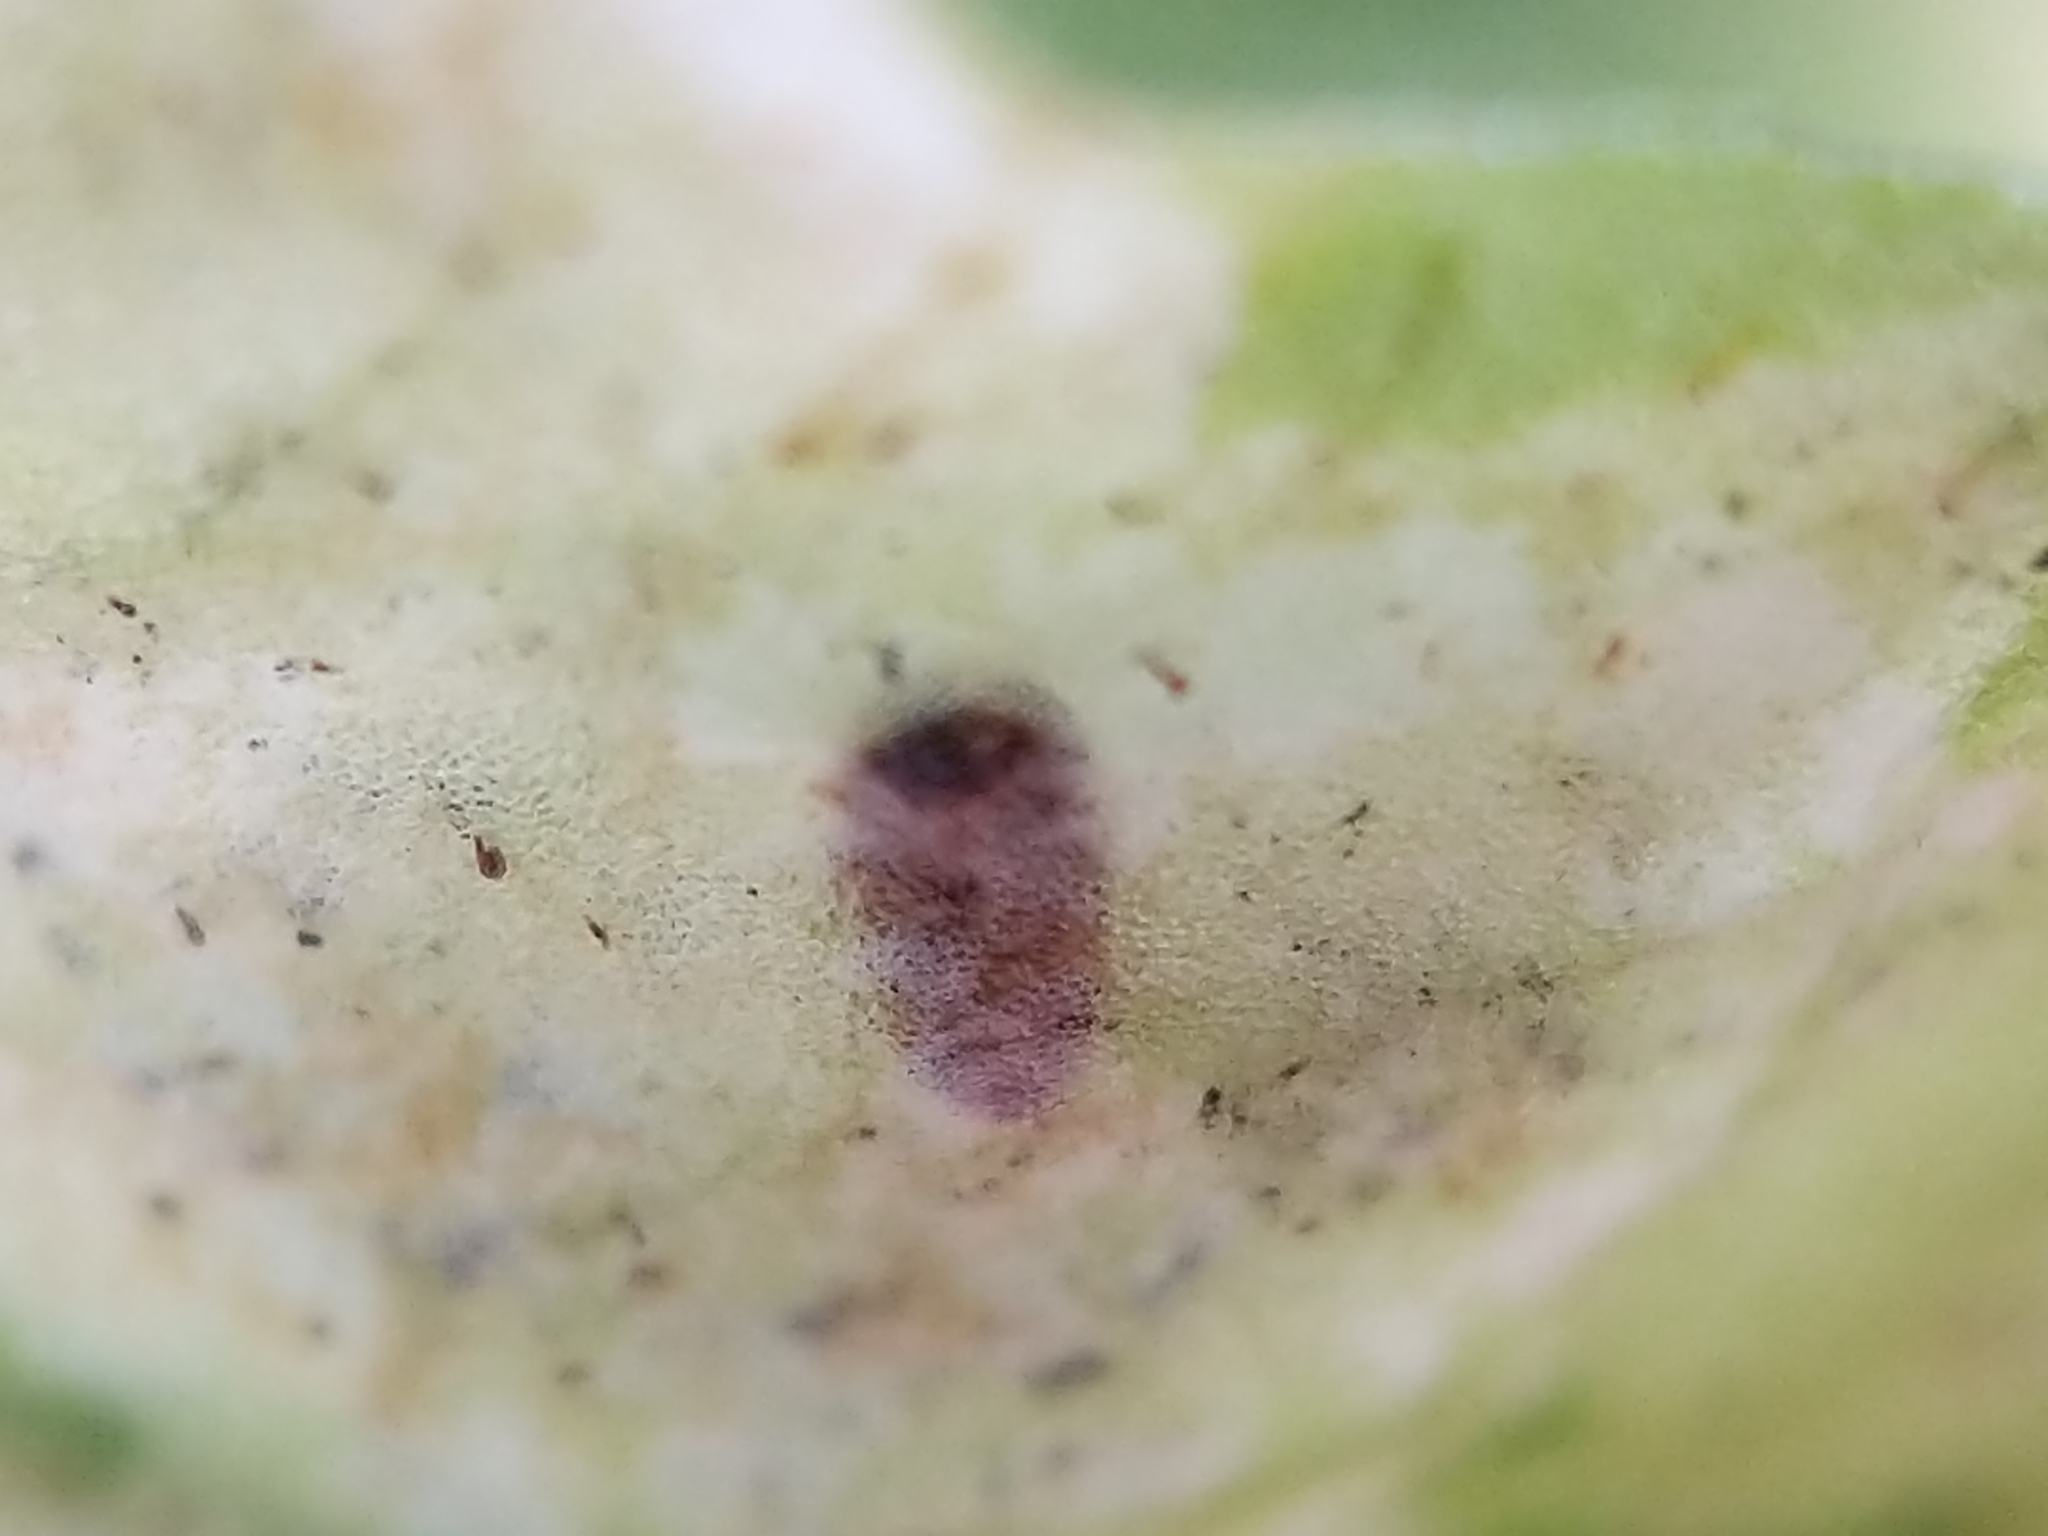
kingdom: Animalia
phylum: Arthropoda
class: Insecta
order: Diptera
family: Agromyzidae
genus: Phytoliriomyza
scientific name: Phytoliriomyza felti
